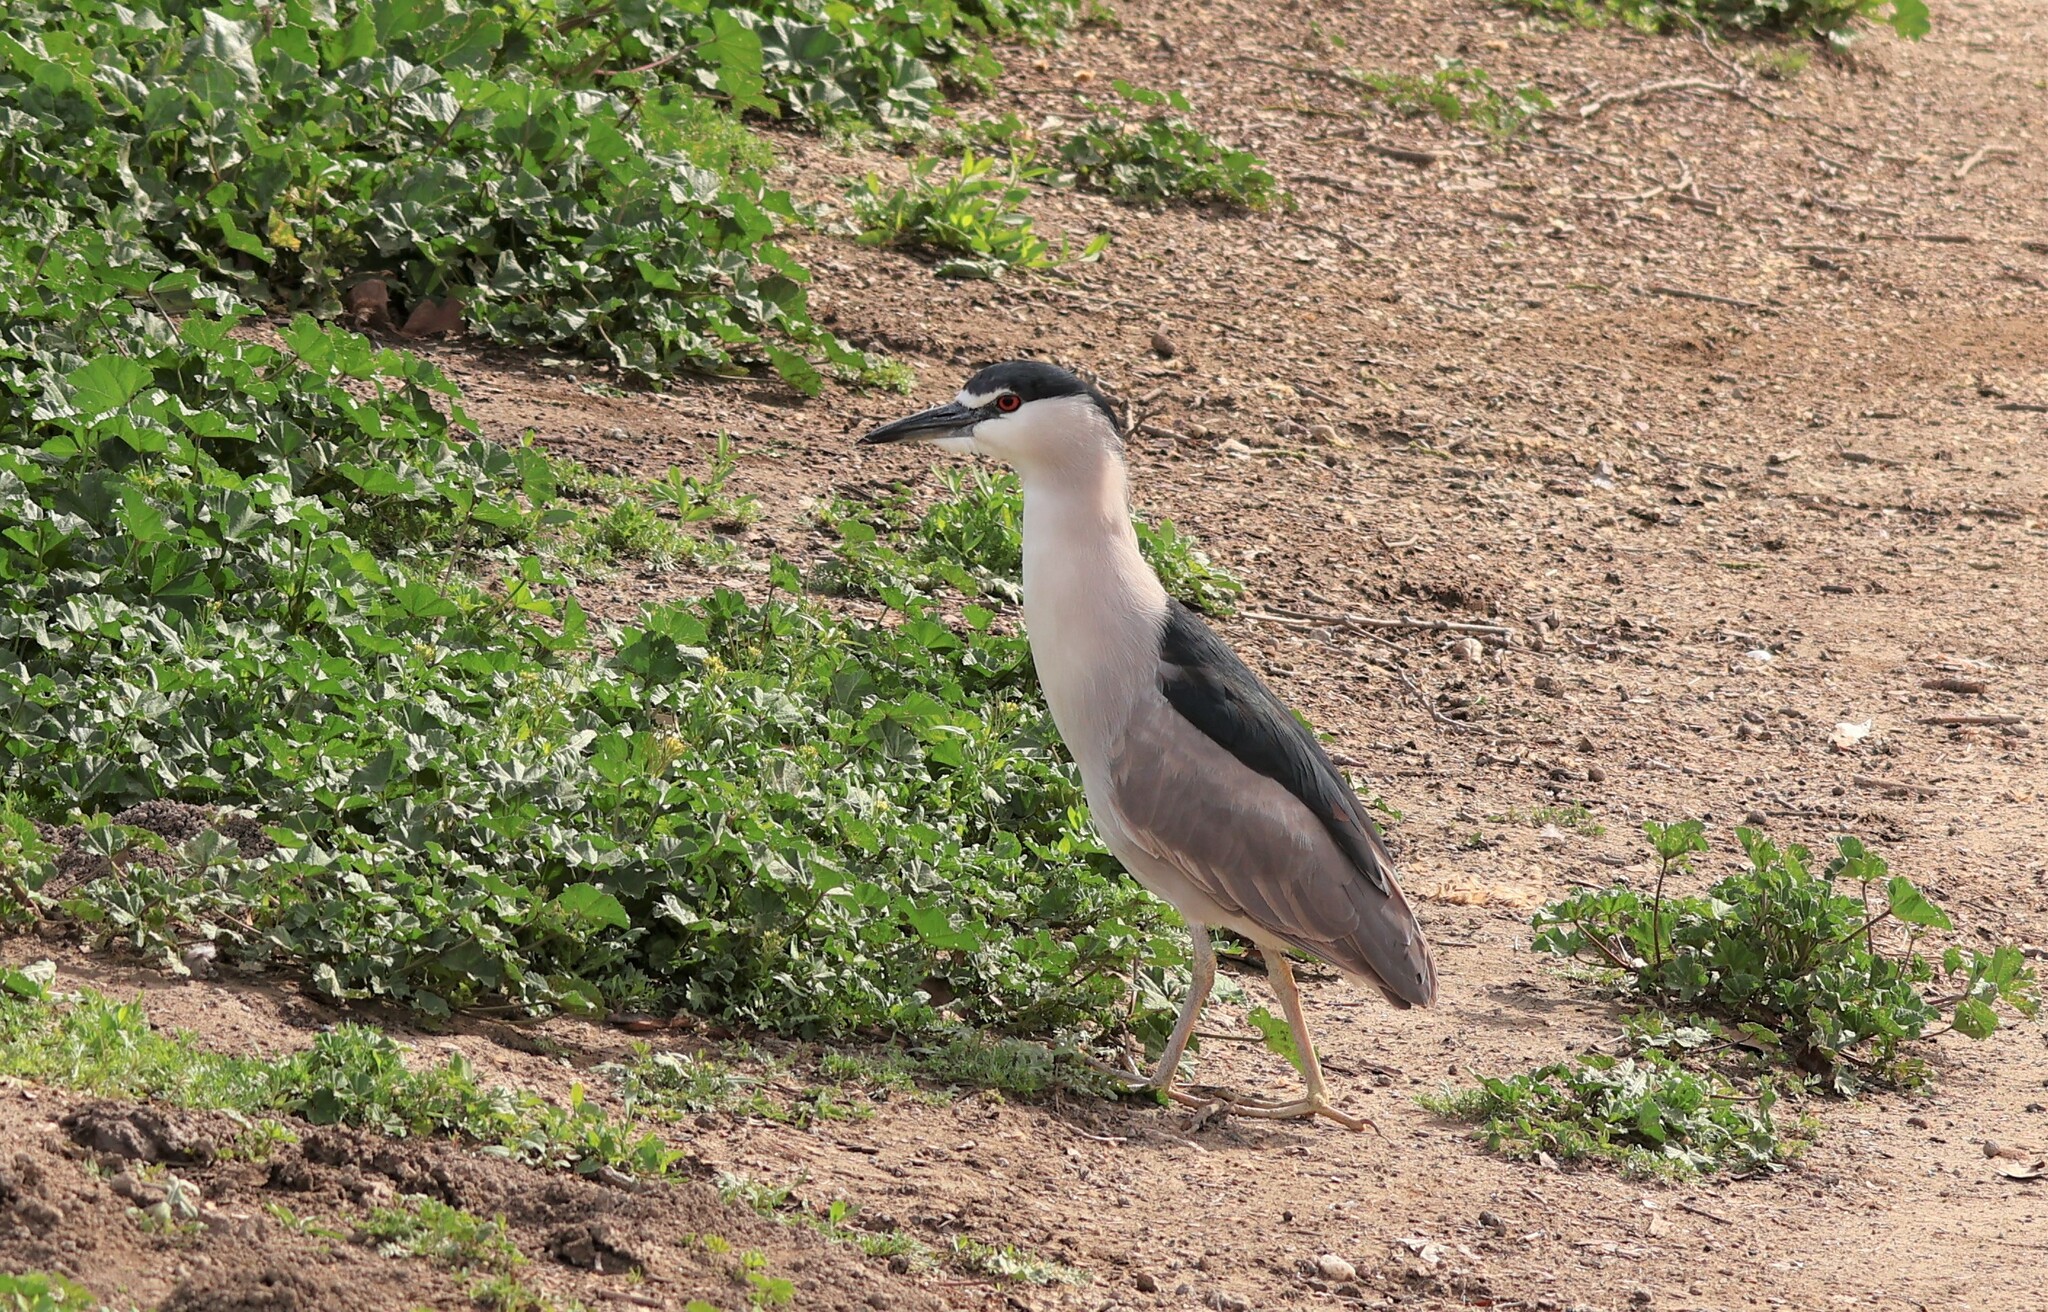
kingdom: Animalia
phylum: Chordata
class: Aves
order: Pelecaniformes
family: Ardeidae
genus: Nycticorax
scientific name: Nycticorax nycticorax
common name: Black-crowned night heron
